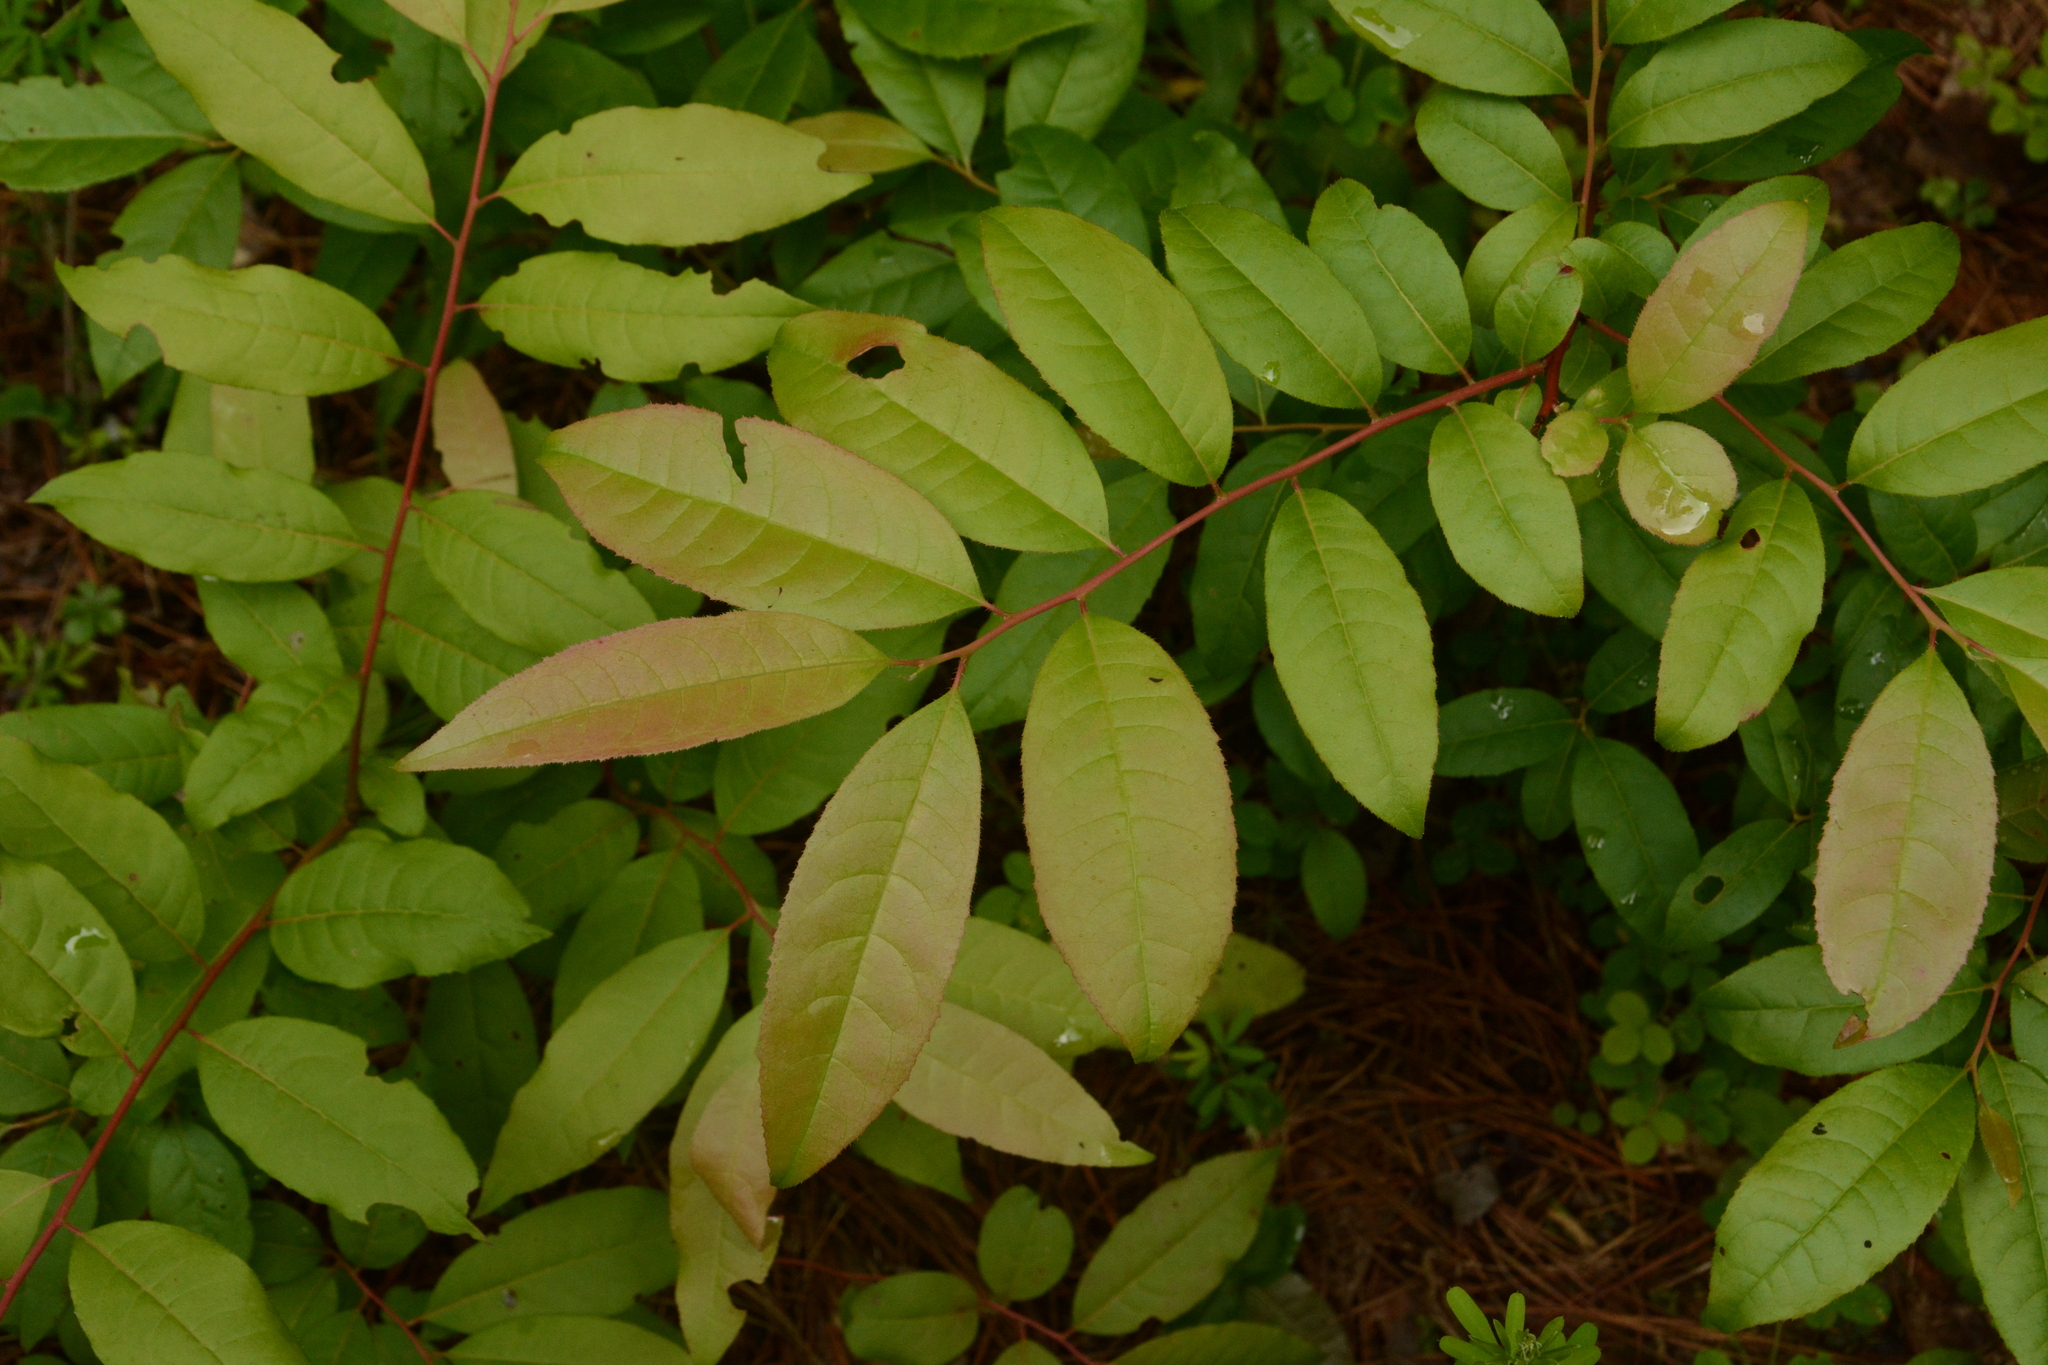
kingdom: Plantae
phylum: Tracheophyta
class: Magnoliopsida
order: Ericales
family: Ericaceae
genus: Oxydendrum
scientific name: Oxydendrum arboreum
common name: Sourwood
